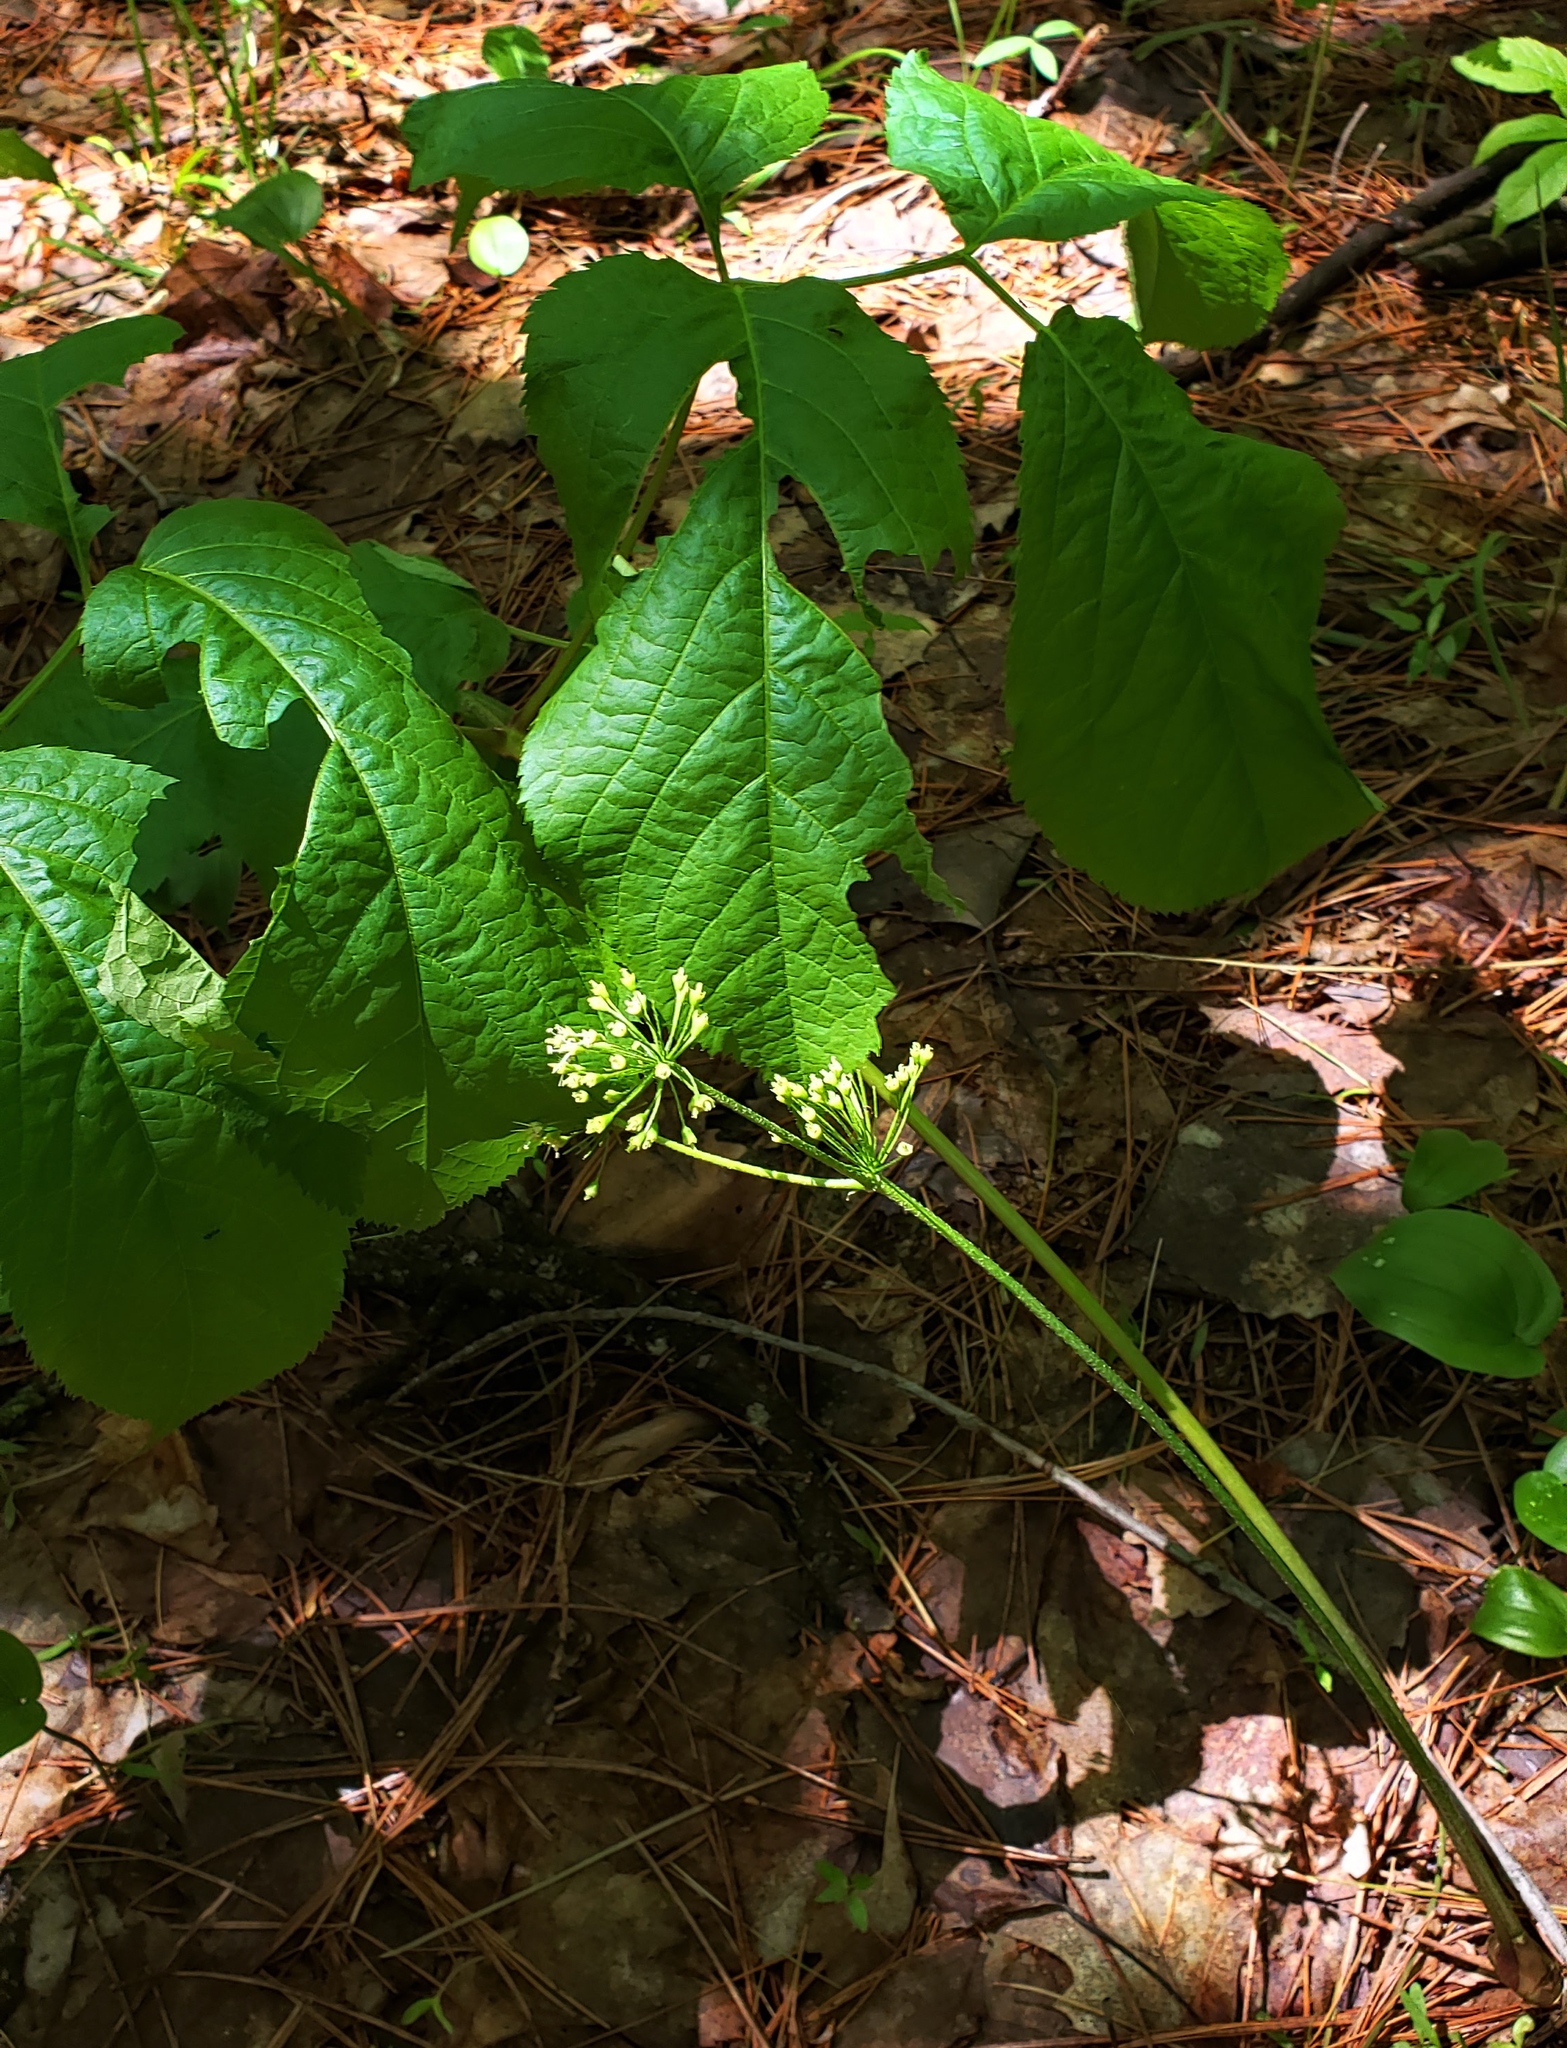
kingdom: Plantae
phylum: Tracheophyta
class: Magnoliopsida
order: Apiales
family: Araliaceae
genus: Aralia
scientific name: Aralia nudicaulis
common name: Wild sarsaparilla
